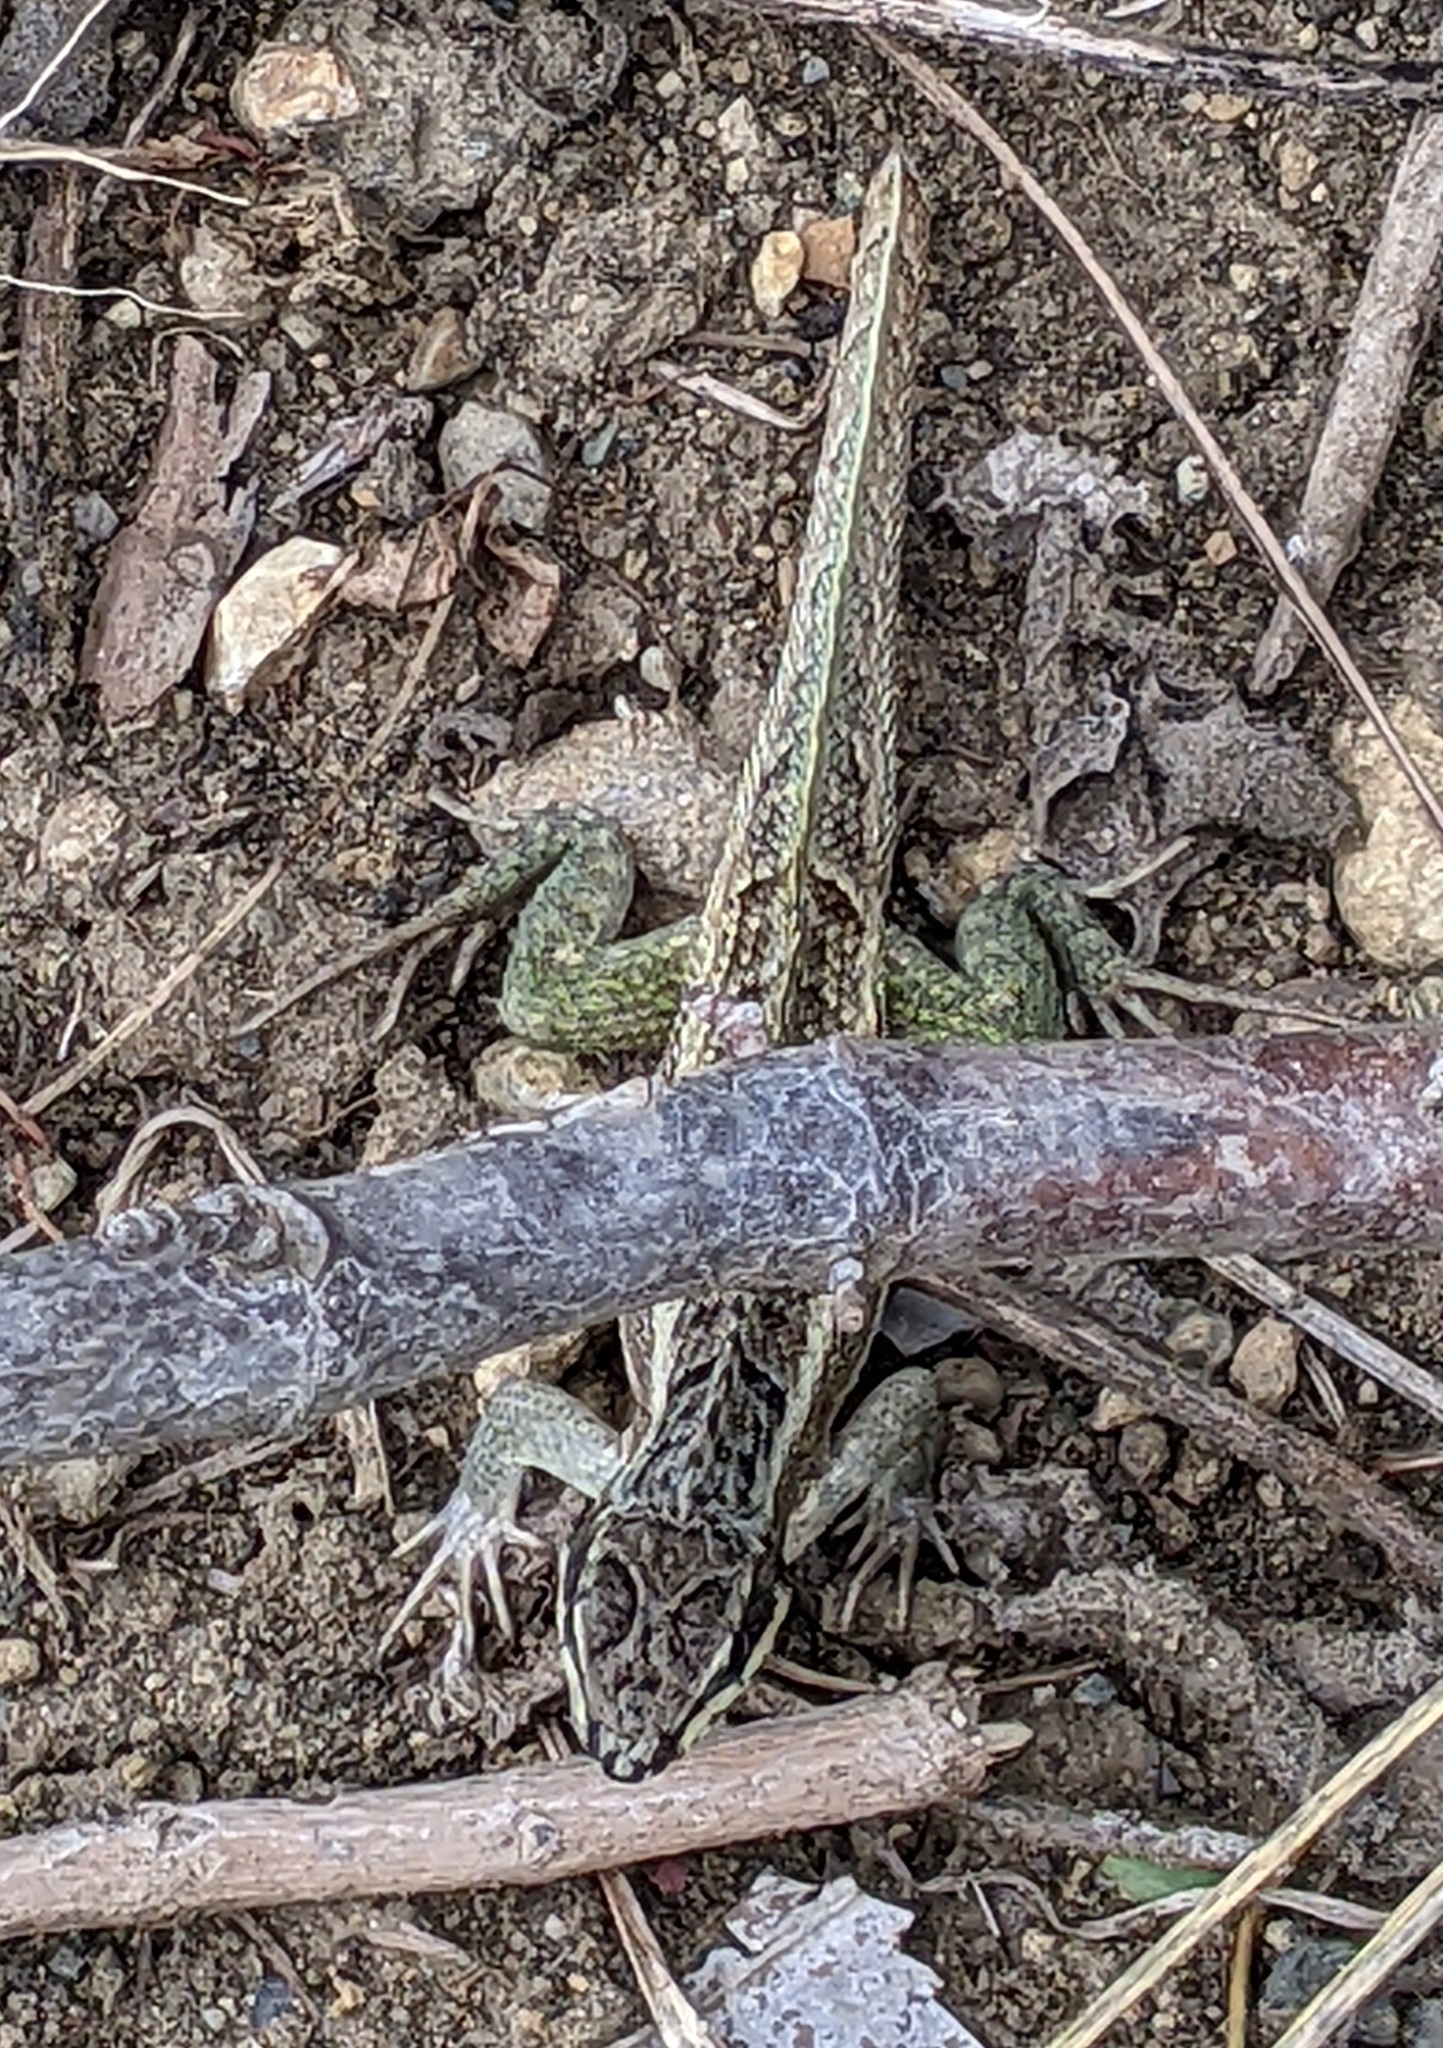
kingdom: Animalia
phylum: Chordata
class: Squamata
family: Leiocephalidae
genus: Leiocephalus
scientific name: Leiocephalus personatus
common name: Haitian curlytail lizard
